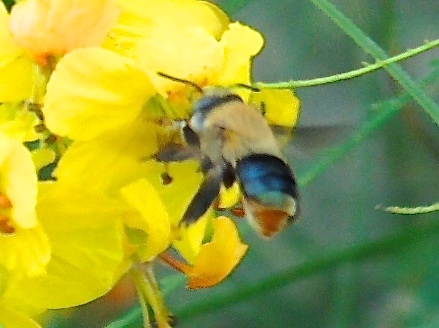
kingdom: Animalia
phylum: Arthropoda
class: Insecta
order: Hymenoptera
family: Apidae
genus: Centris
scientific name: Centris
